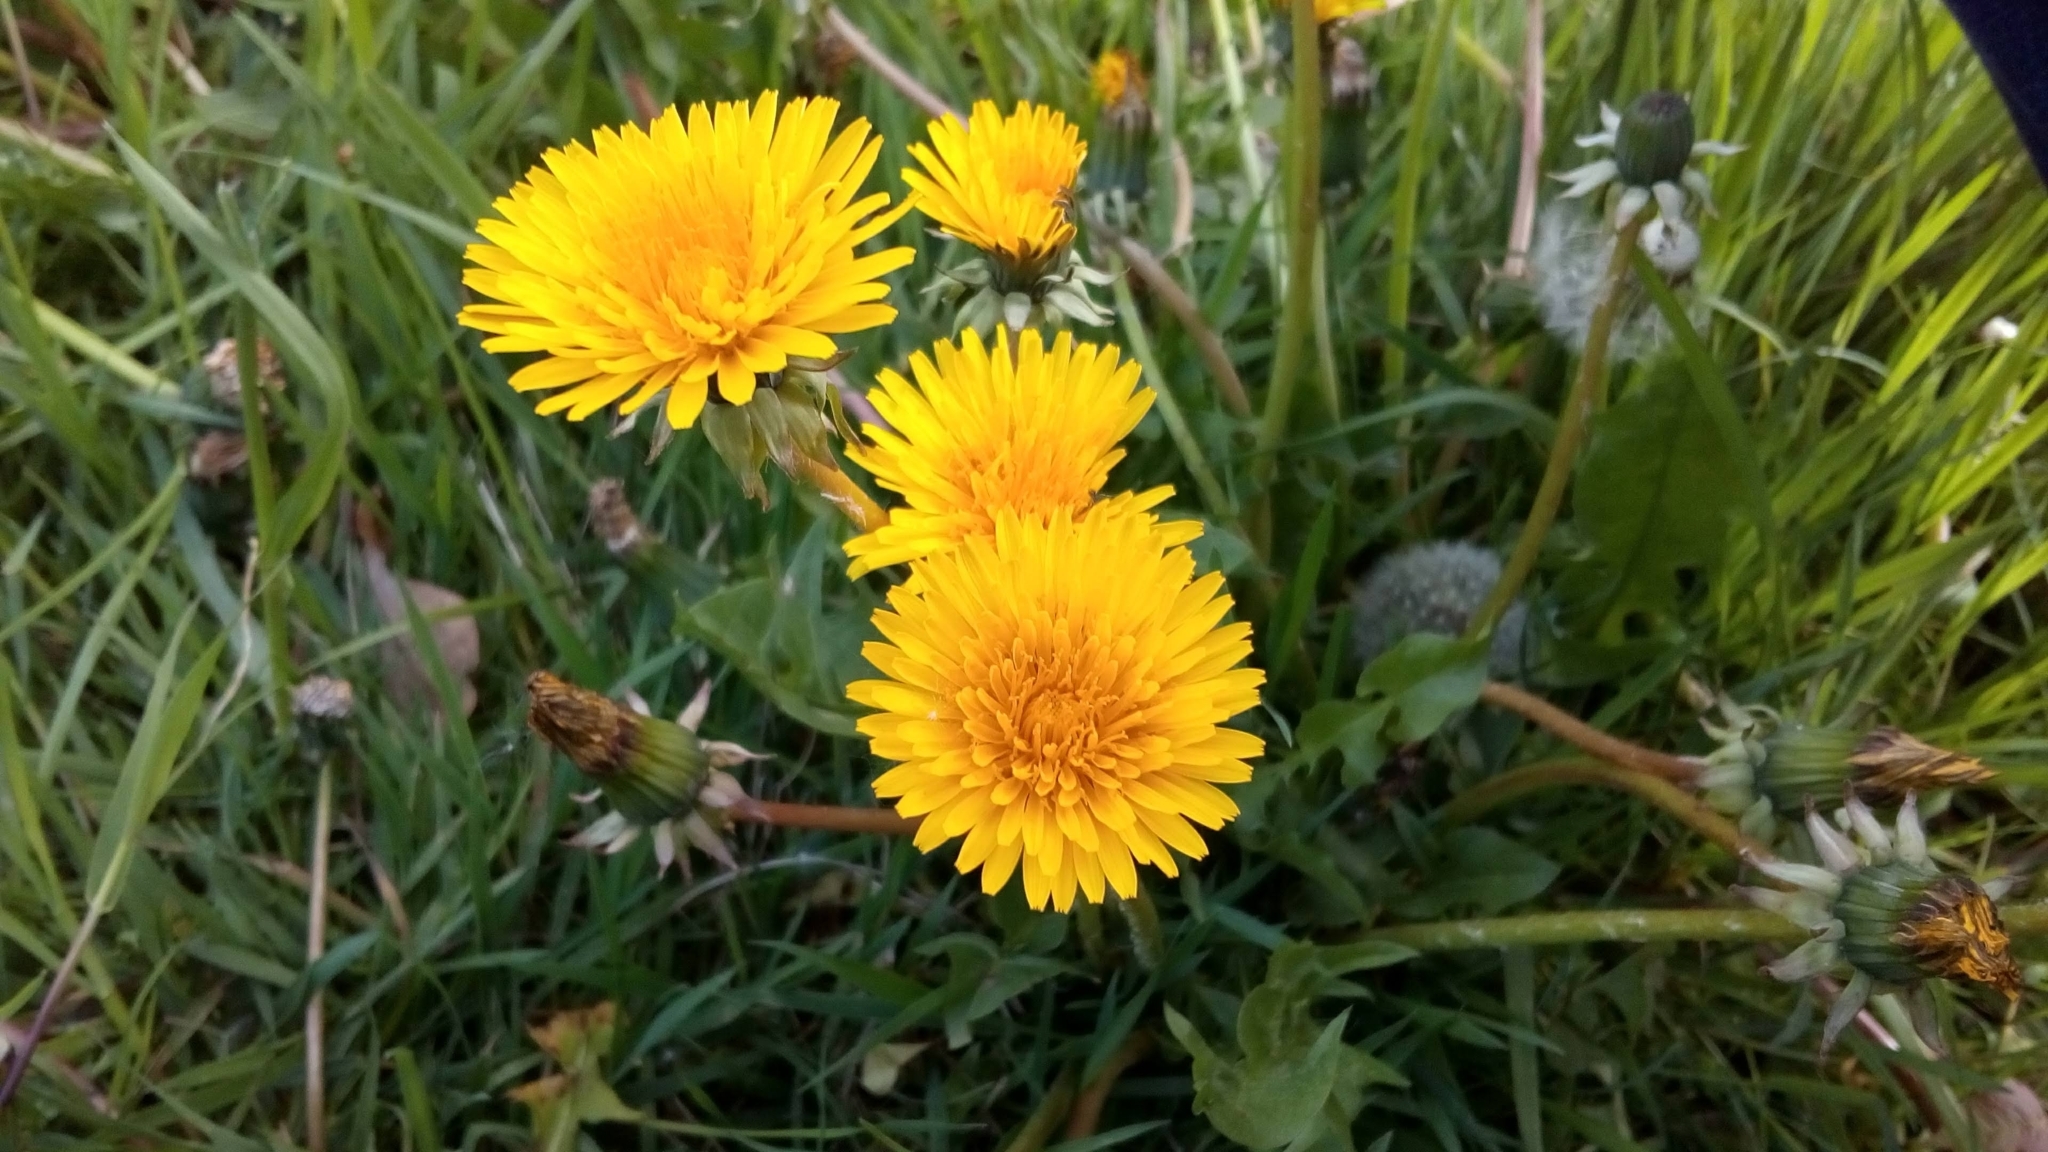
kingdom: Plantae
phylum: Tracheophyta
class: Magnoliopsida
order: Asterales
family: Asteraceae
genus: Taraxacum
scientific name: Taraxacum officinale
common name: Common dandelion
